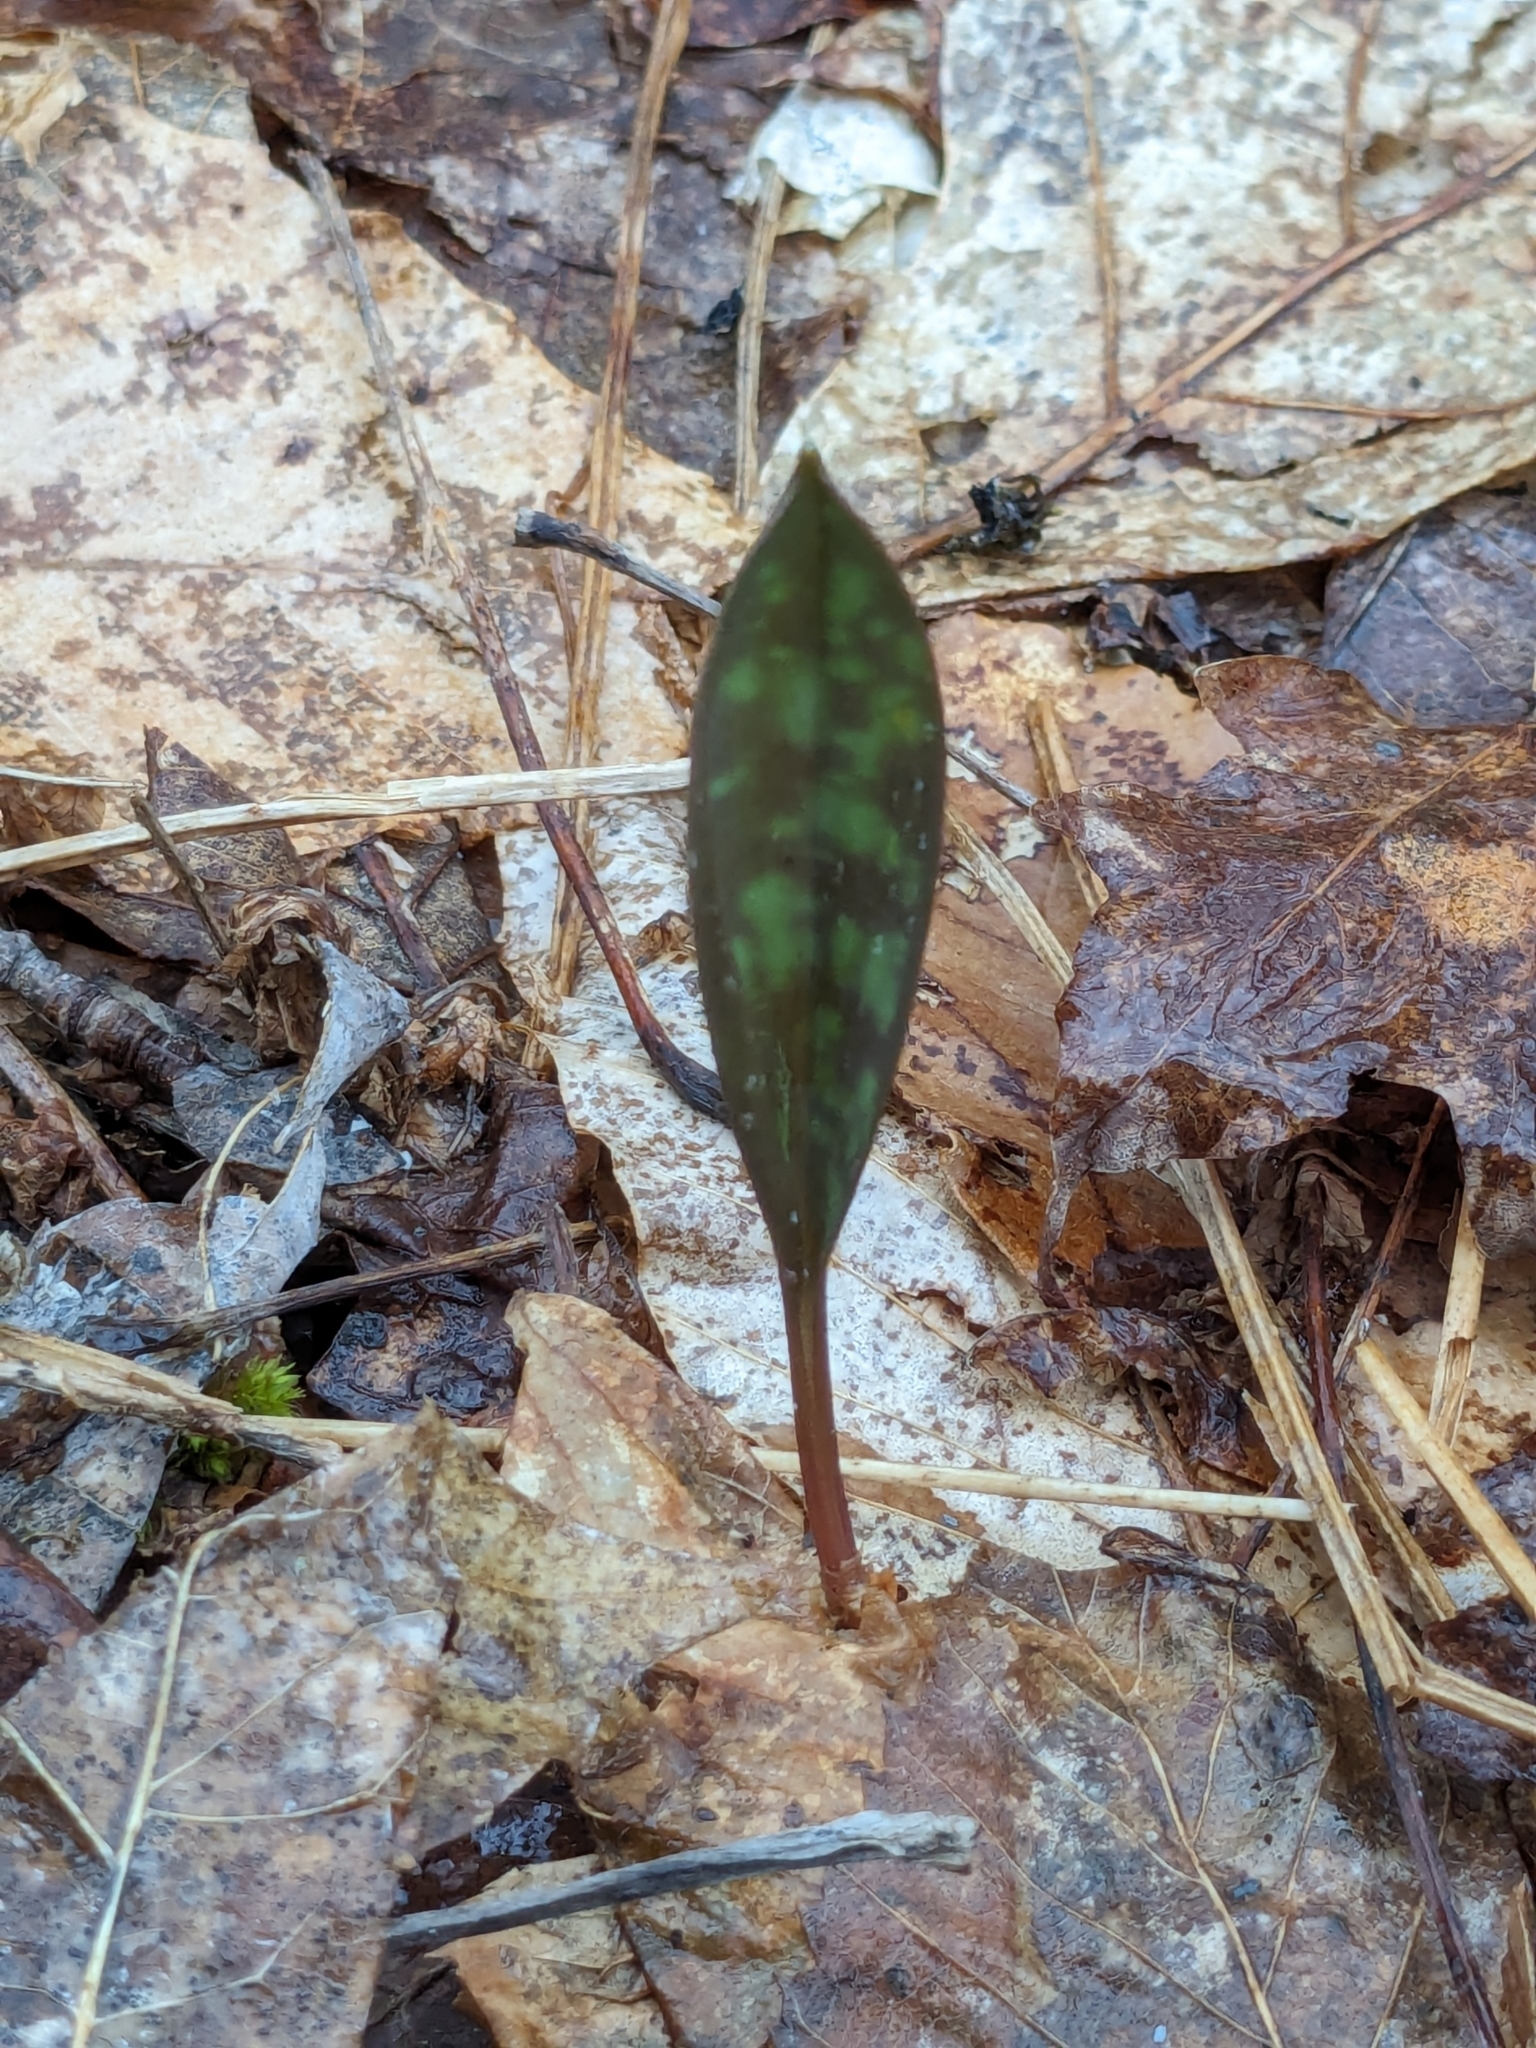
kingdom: Plantae
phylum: Tracheophyta
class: Liliopsida
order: Liliales
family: Liliaceae
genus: Erythronium
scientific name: Erythronium americanum
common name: Yellow adder's-tongue
